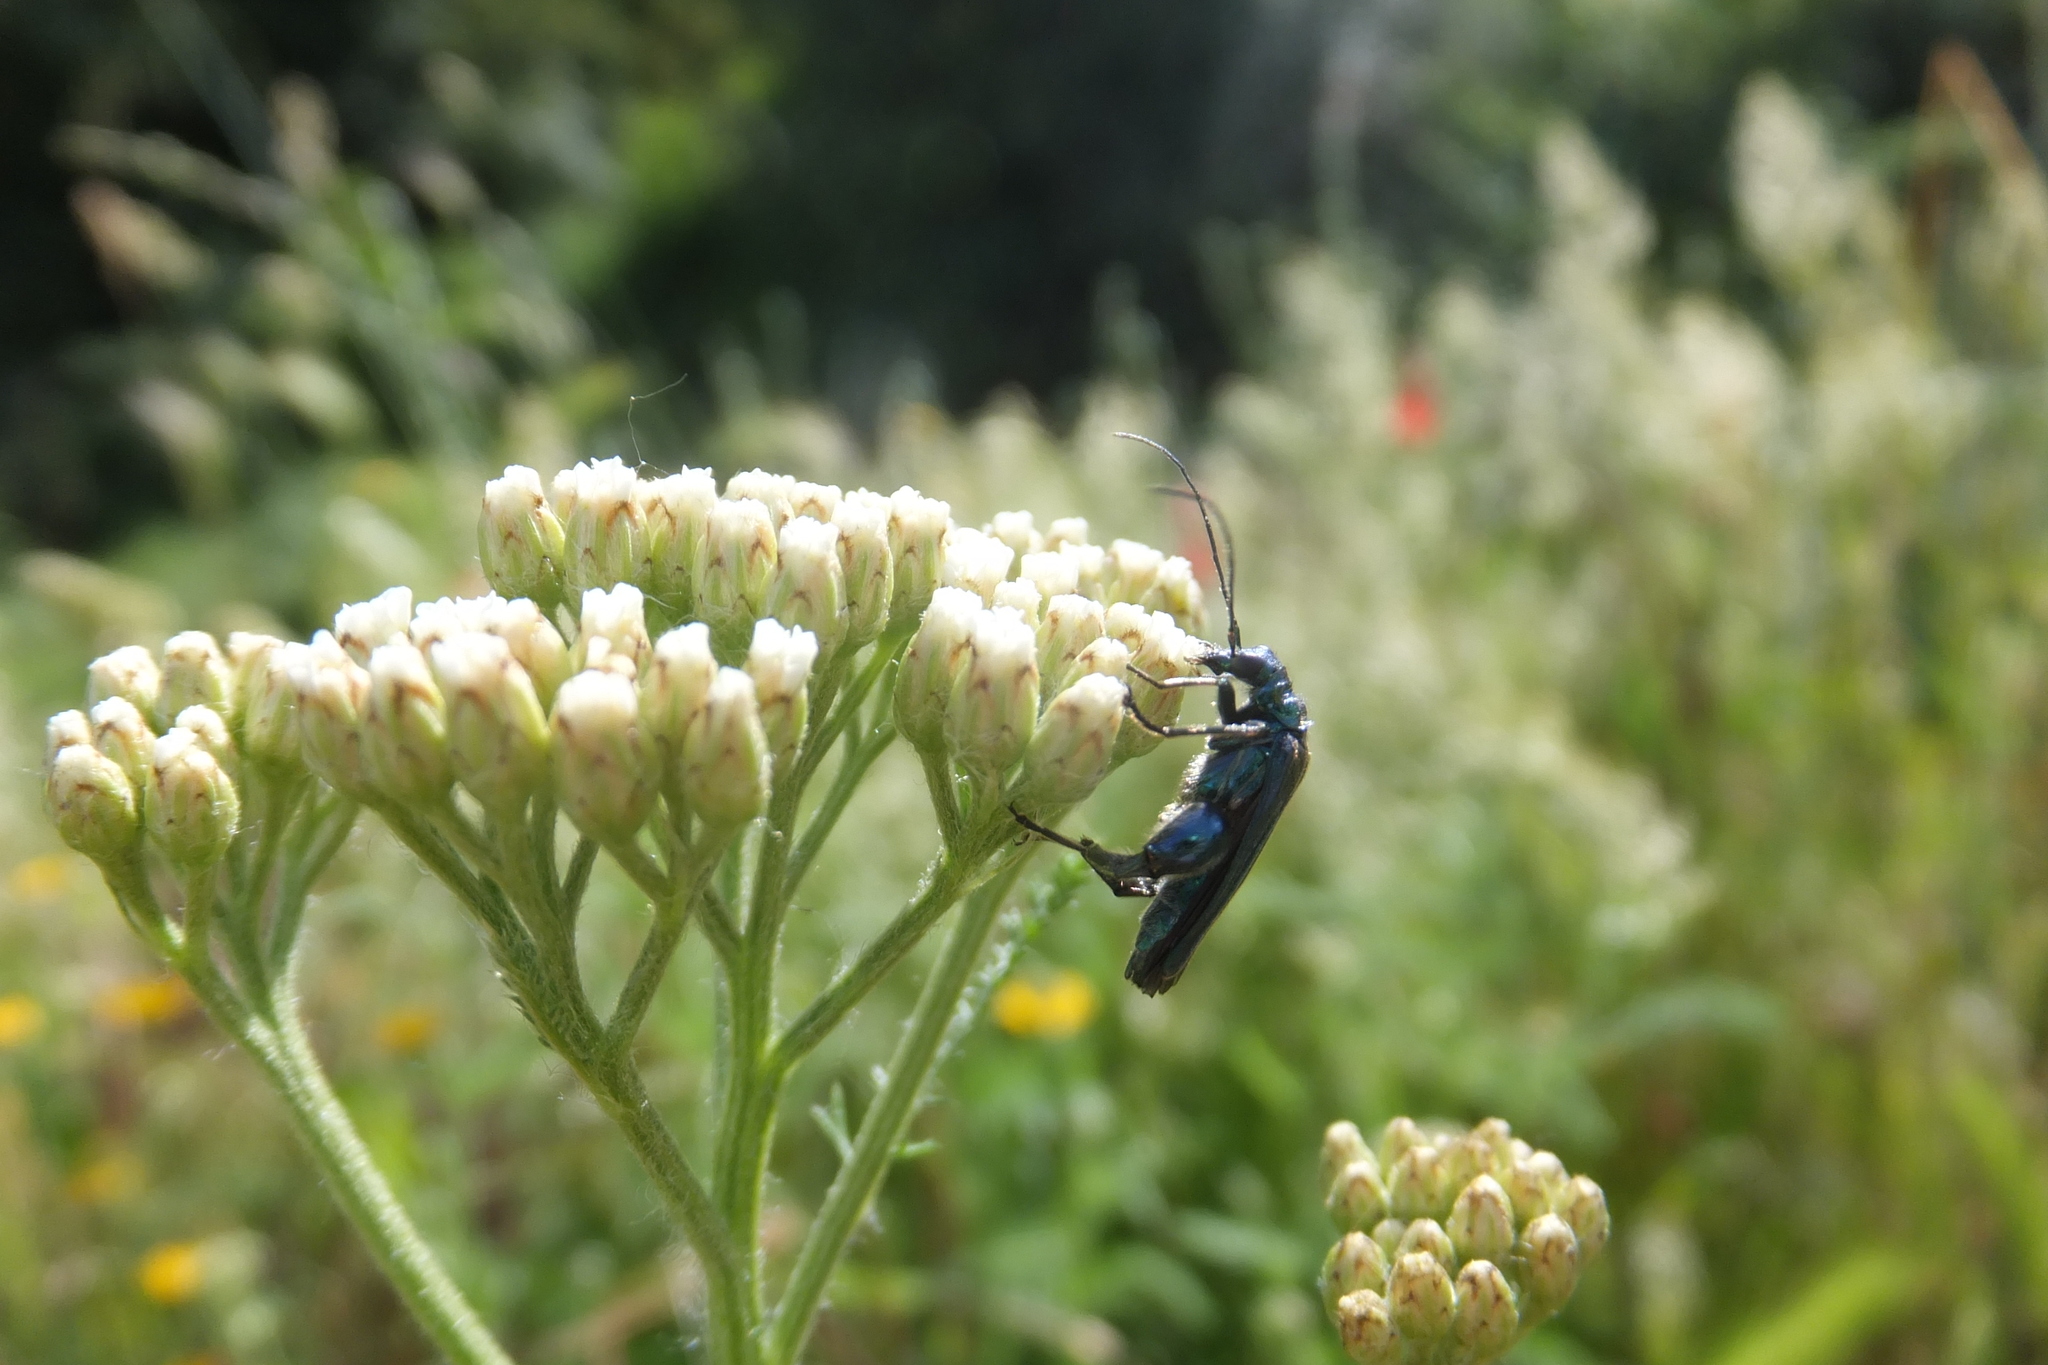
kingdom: Animalia
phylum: Arthropoda
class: Insecta
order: Coleoptera
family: Oedemeridae
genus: Oedemera
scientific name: Oedemera nobilis
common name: Swollen-thighed beetle
